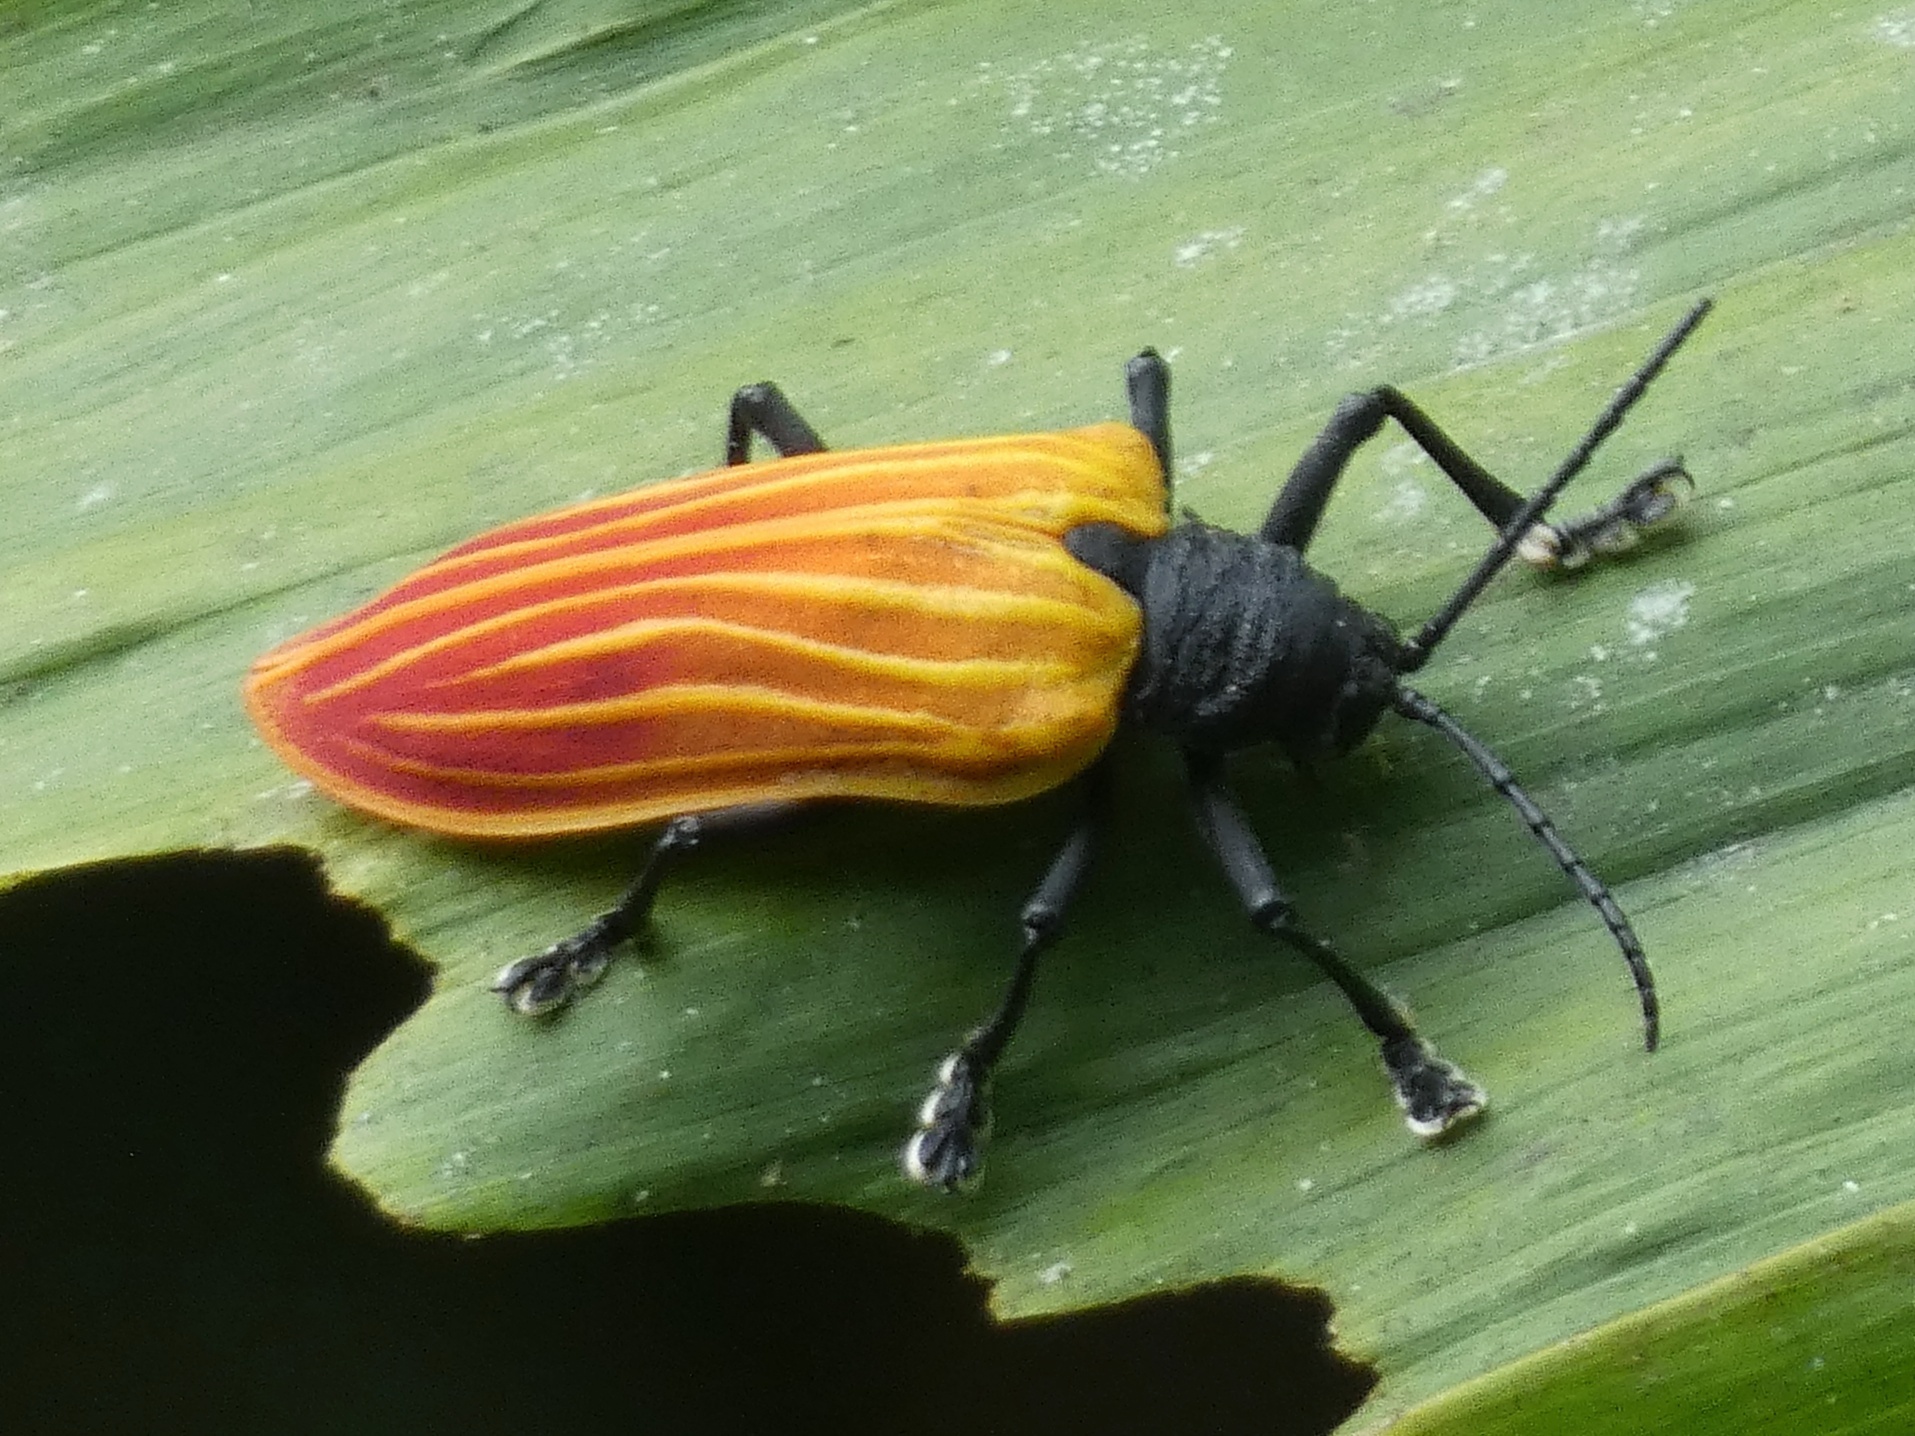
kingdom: Animalia
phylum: Arthropoda
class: Insecta
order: Coleoptera
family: Chrysomelidae
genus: Alurnus
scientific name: Alurnus costalis
